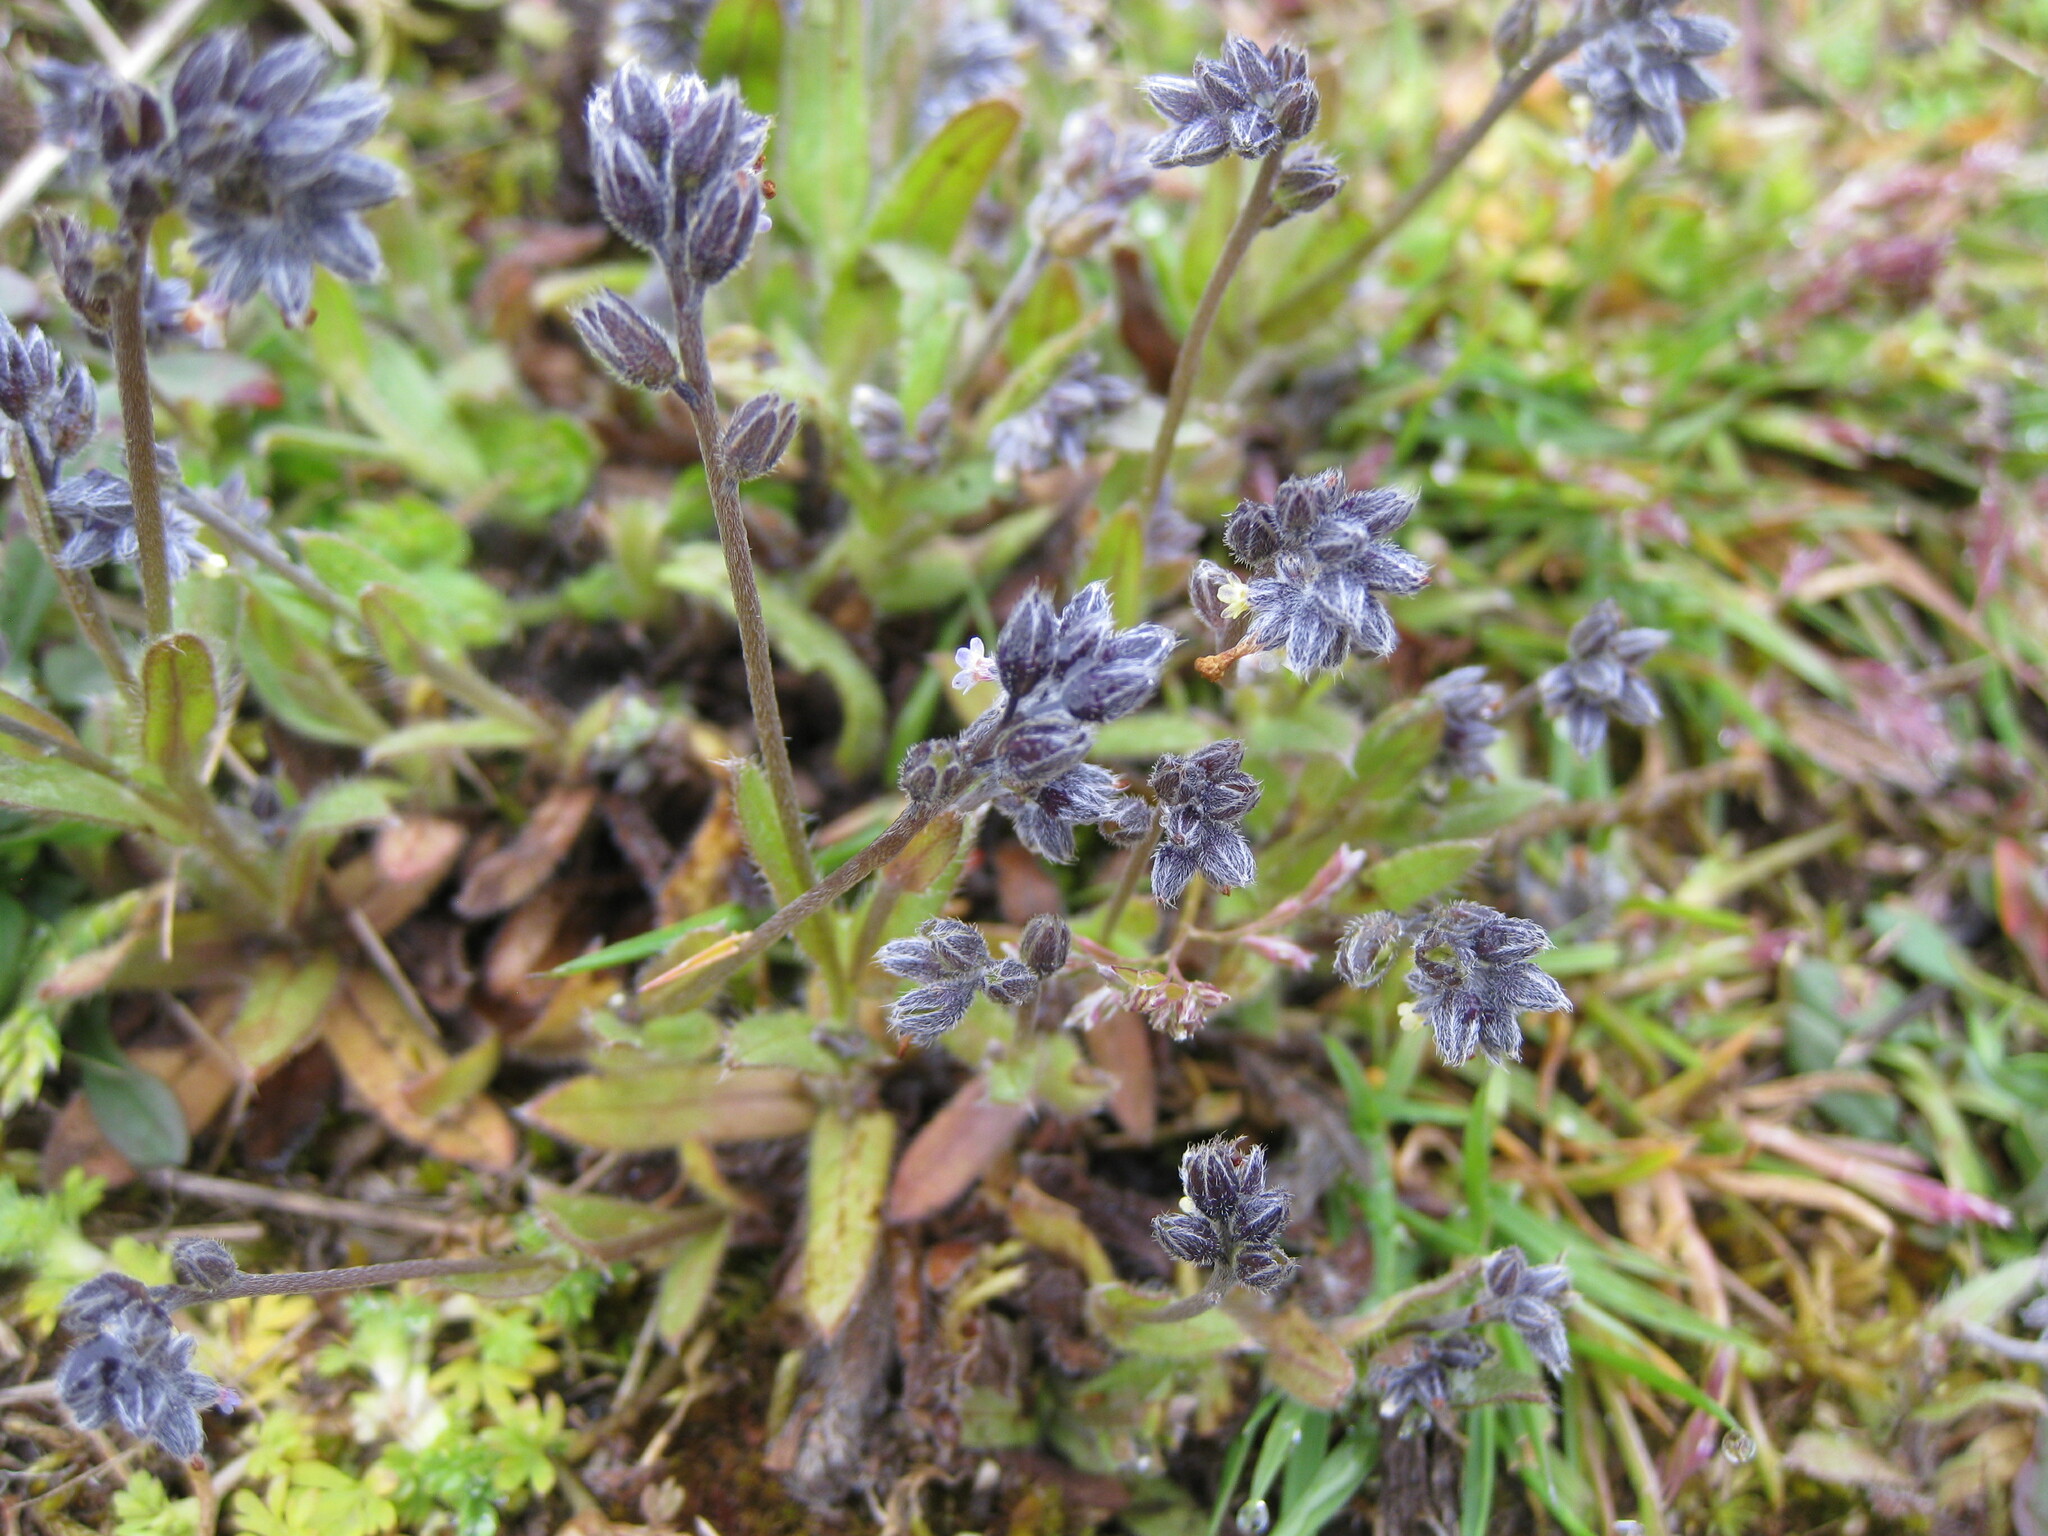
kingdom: Plantae
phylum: Tracheophyta
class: Magnoliopsida
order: Boraginales
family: Boraginaceae
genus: Myosotis
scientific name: Myosotis discolor
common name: Changing forget-me-not
